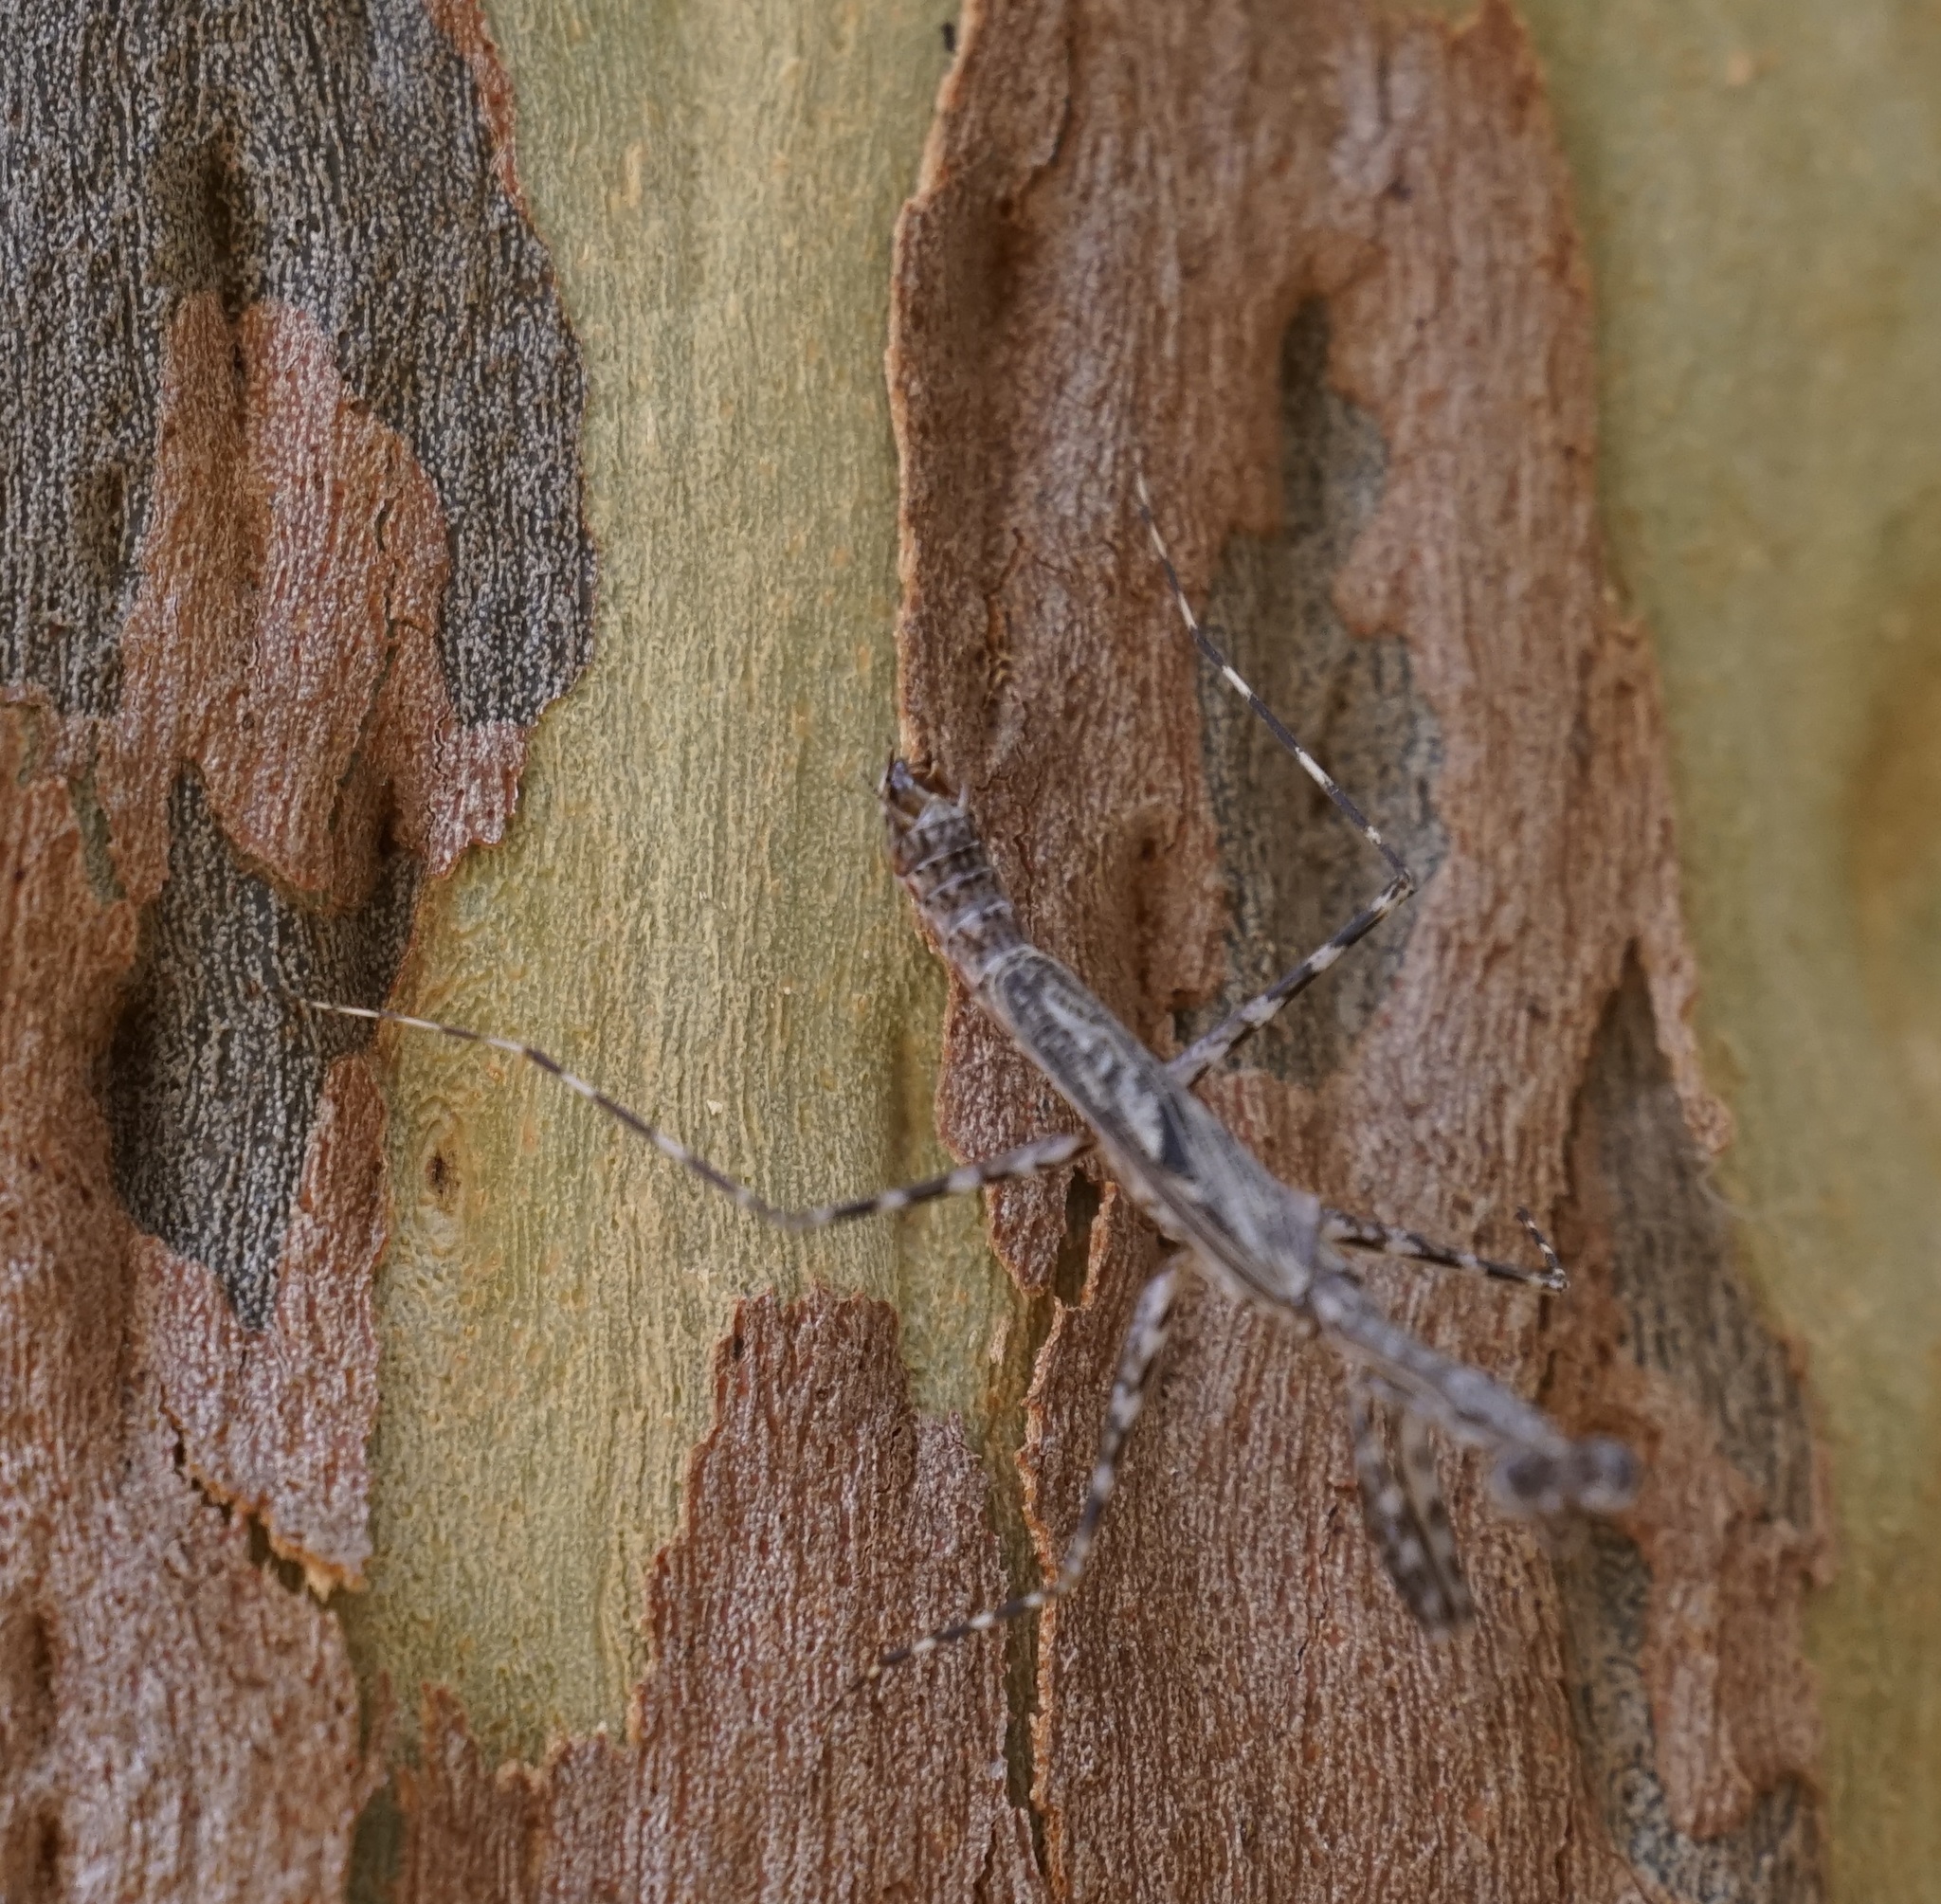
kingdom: Animalia
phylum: Arthropoda
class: Insecta
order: Mantodea
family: Nanomantidae
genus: Ciulfina
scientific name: Ciulfina baldersoni
